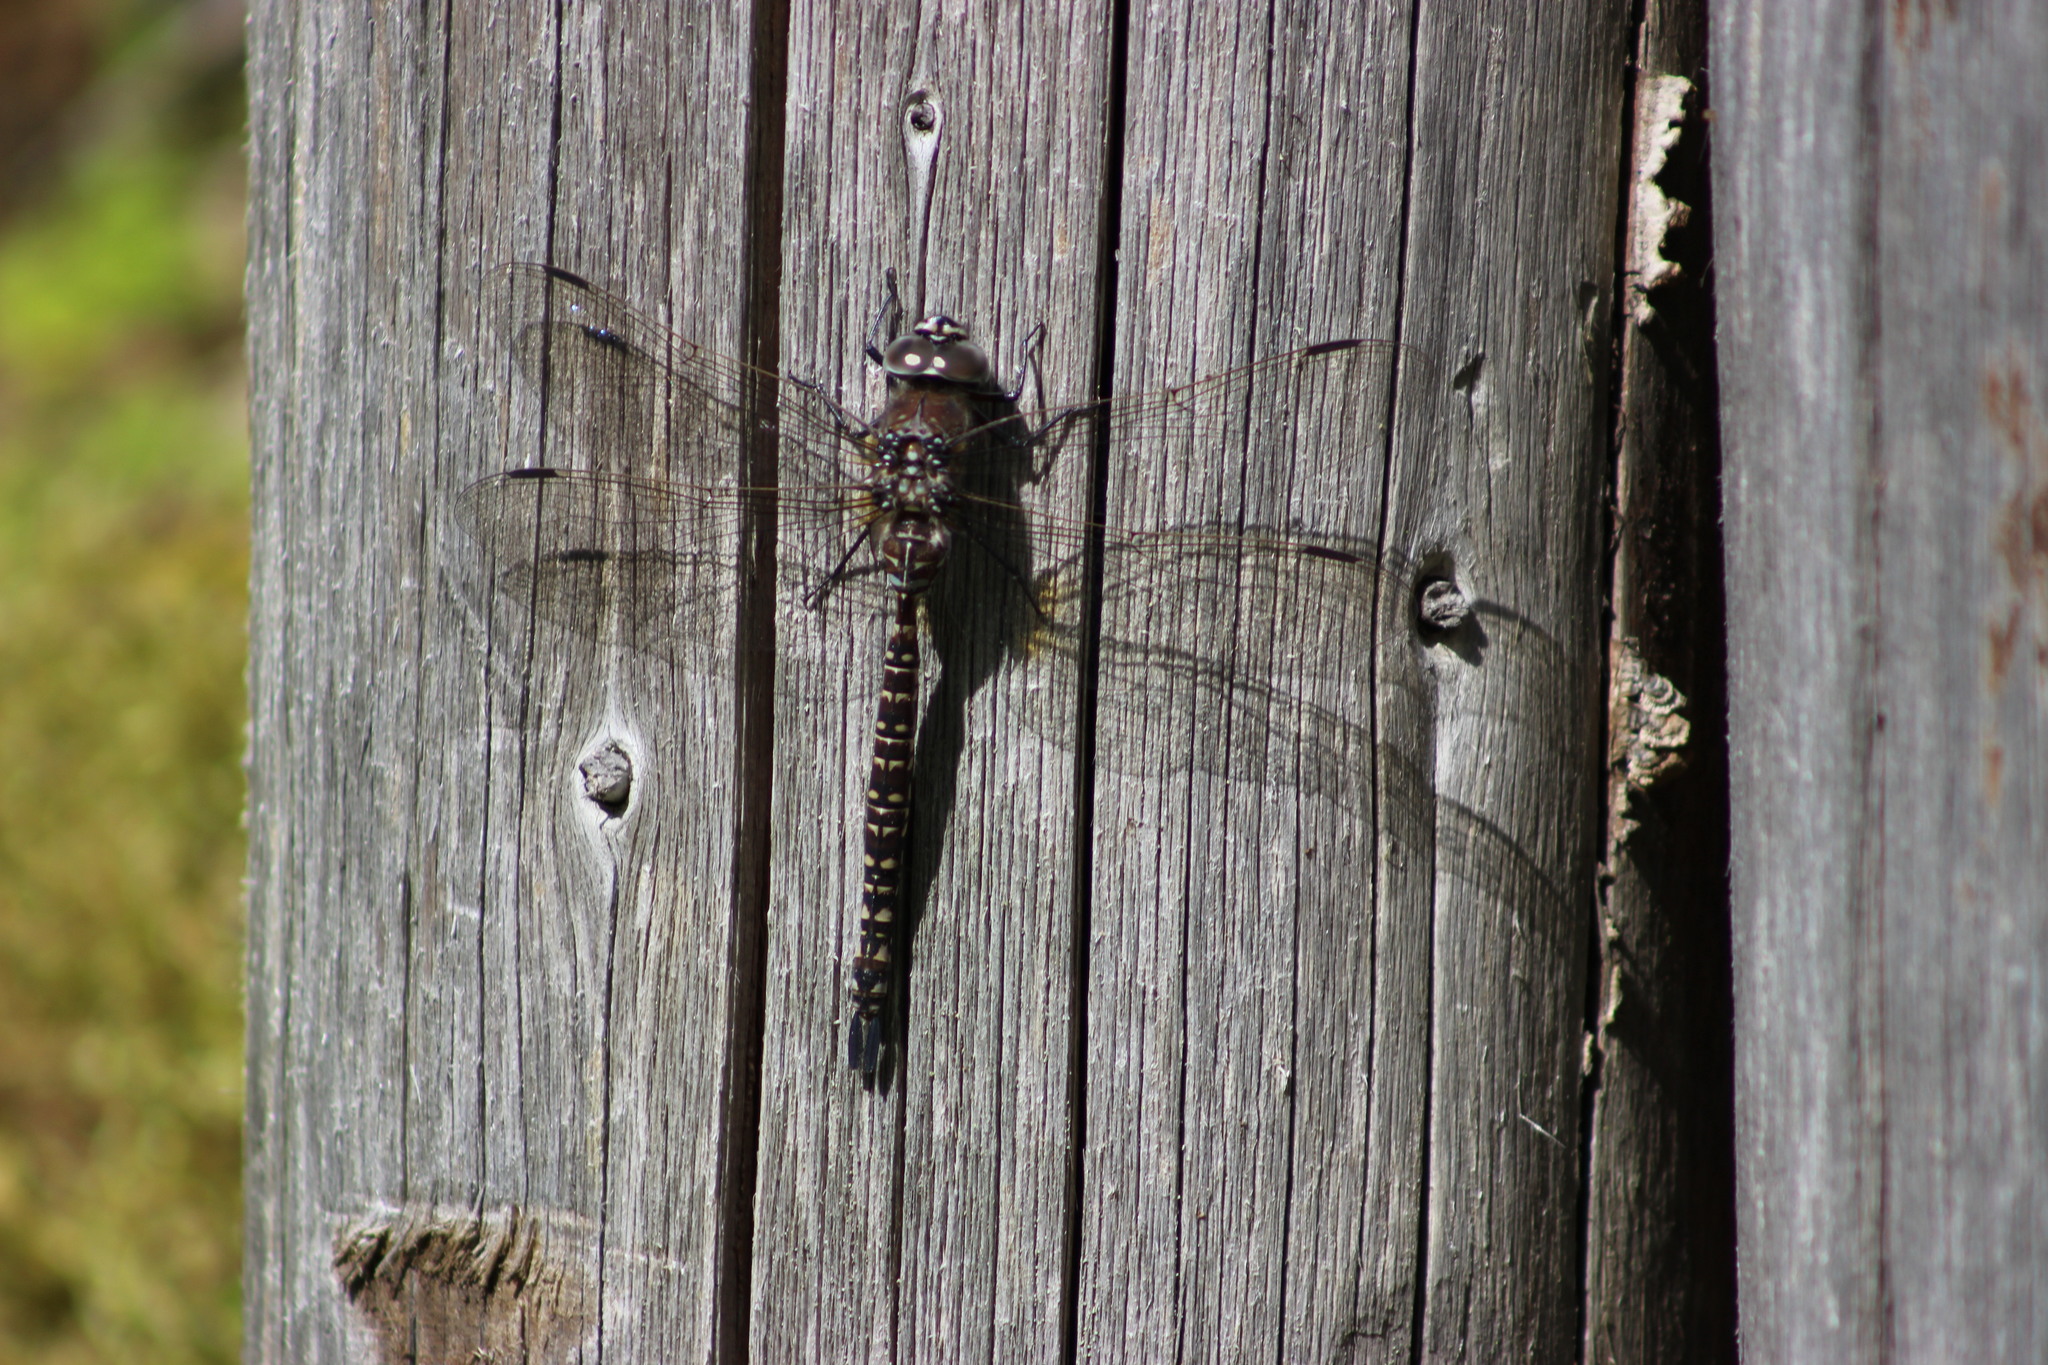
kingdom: Animalia
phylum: Arthropoda
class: Insecta
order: Odonata
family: Aeshnidae
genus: Aeshna
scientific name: Aeshna subarctica
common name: Subarctic darner
